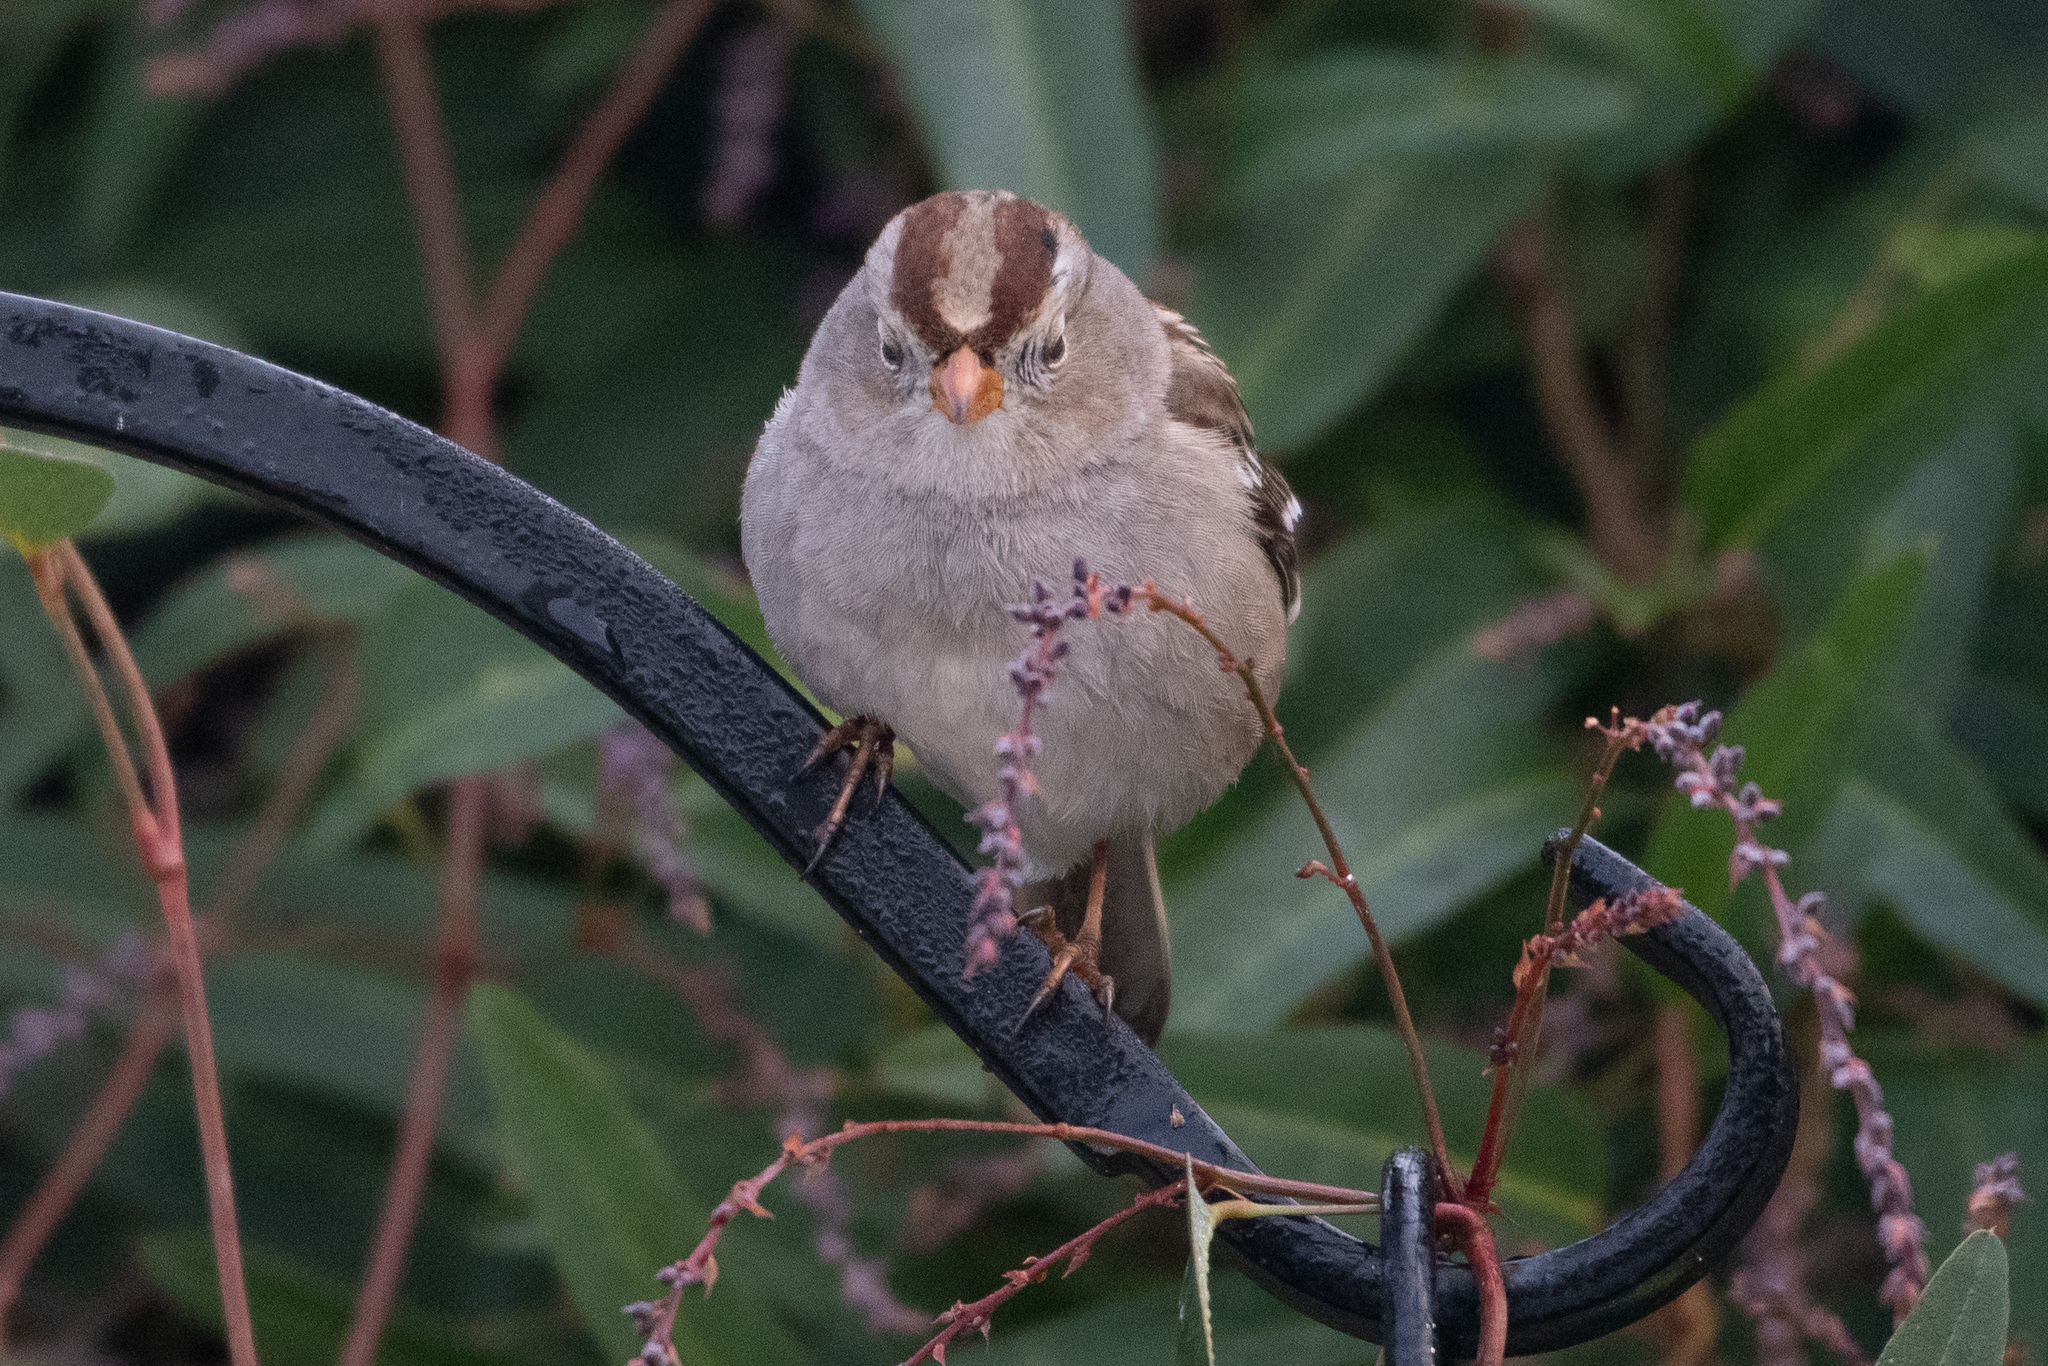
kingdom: Animalia
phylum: Chordata
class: Aves
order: Passeriformes
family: Passerellidae
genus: Zonotrichia
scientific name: Zonotrichia leucophrys
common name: White-crowned sparrow
